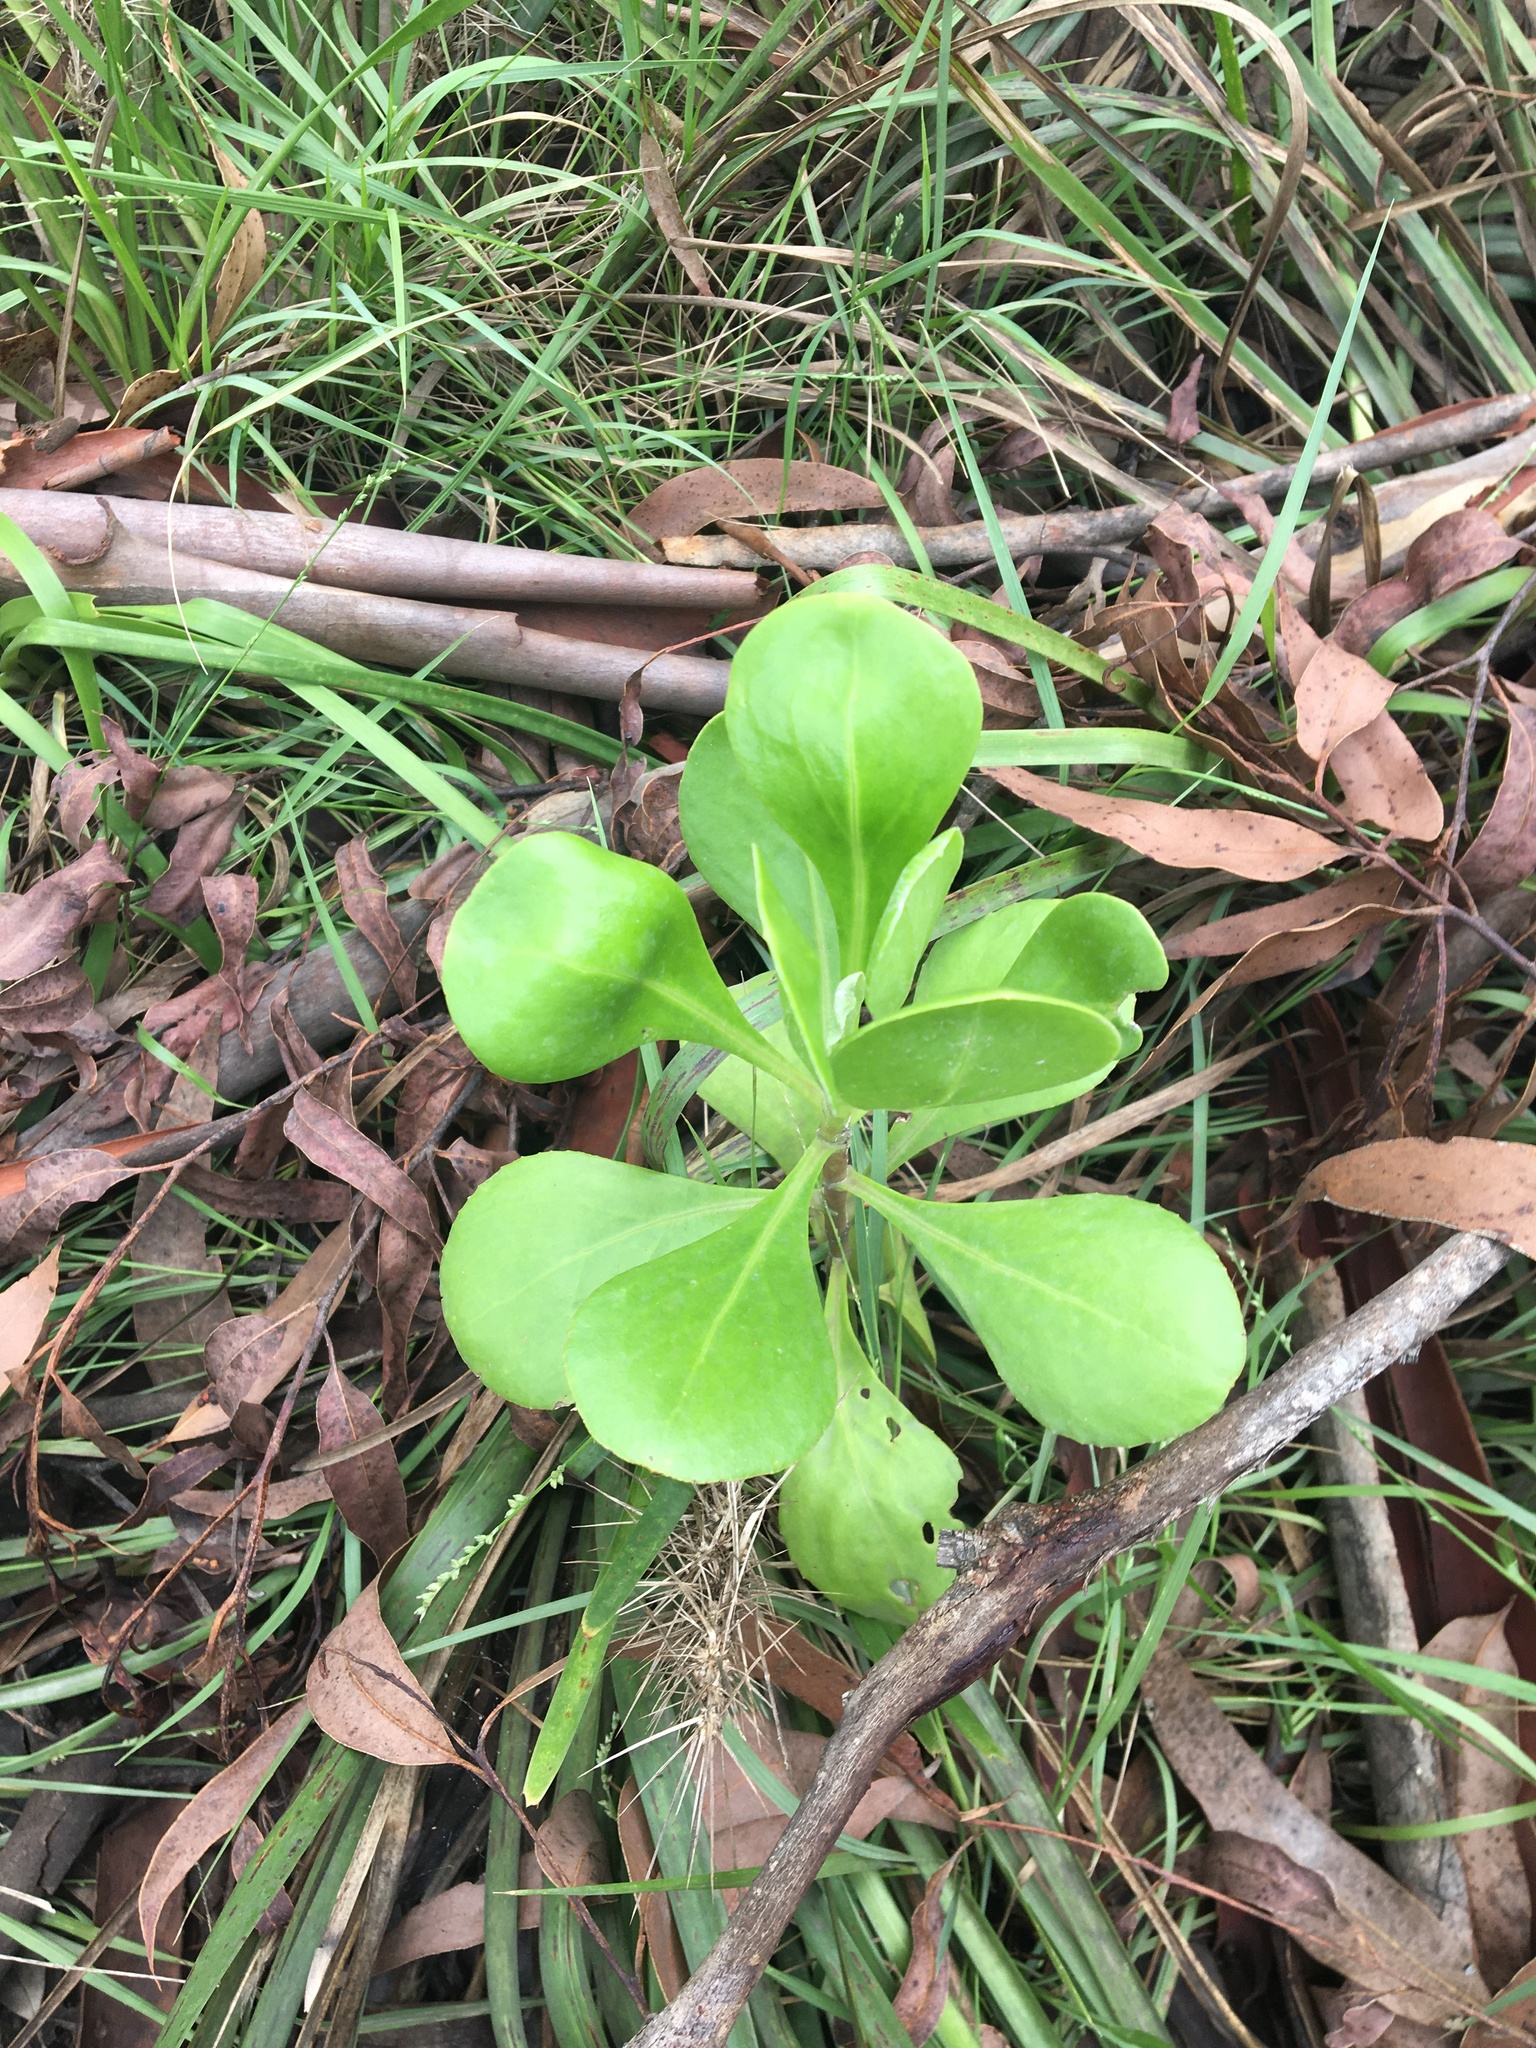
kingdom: Plantae
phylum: Tracheophyta
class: Magnoliopsida
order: Asterales
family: Asteraceae
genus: Osteospermum
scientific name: Osteospermum moniliferum
